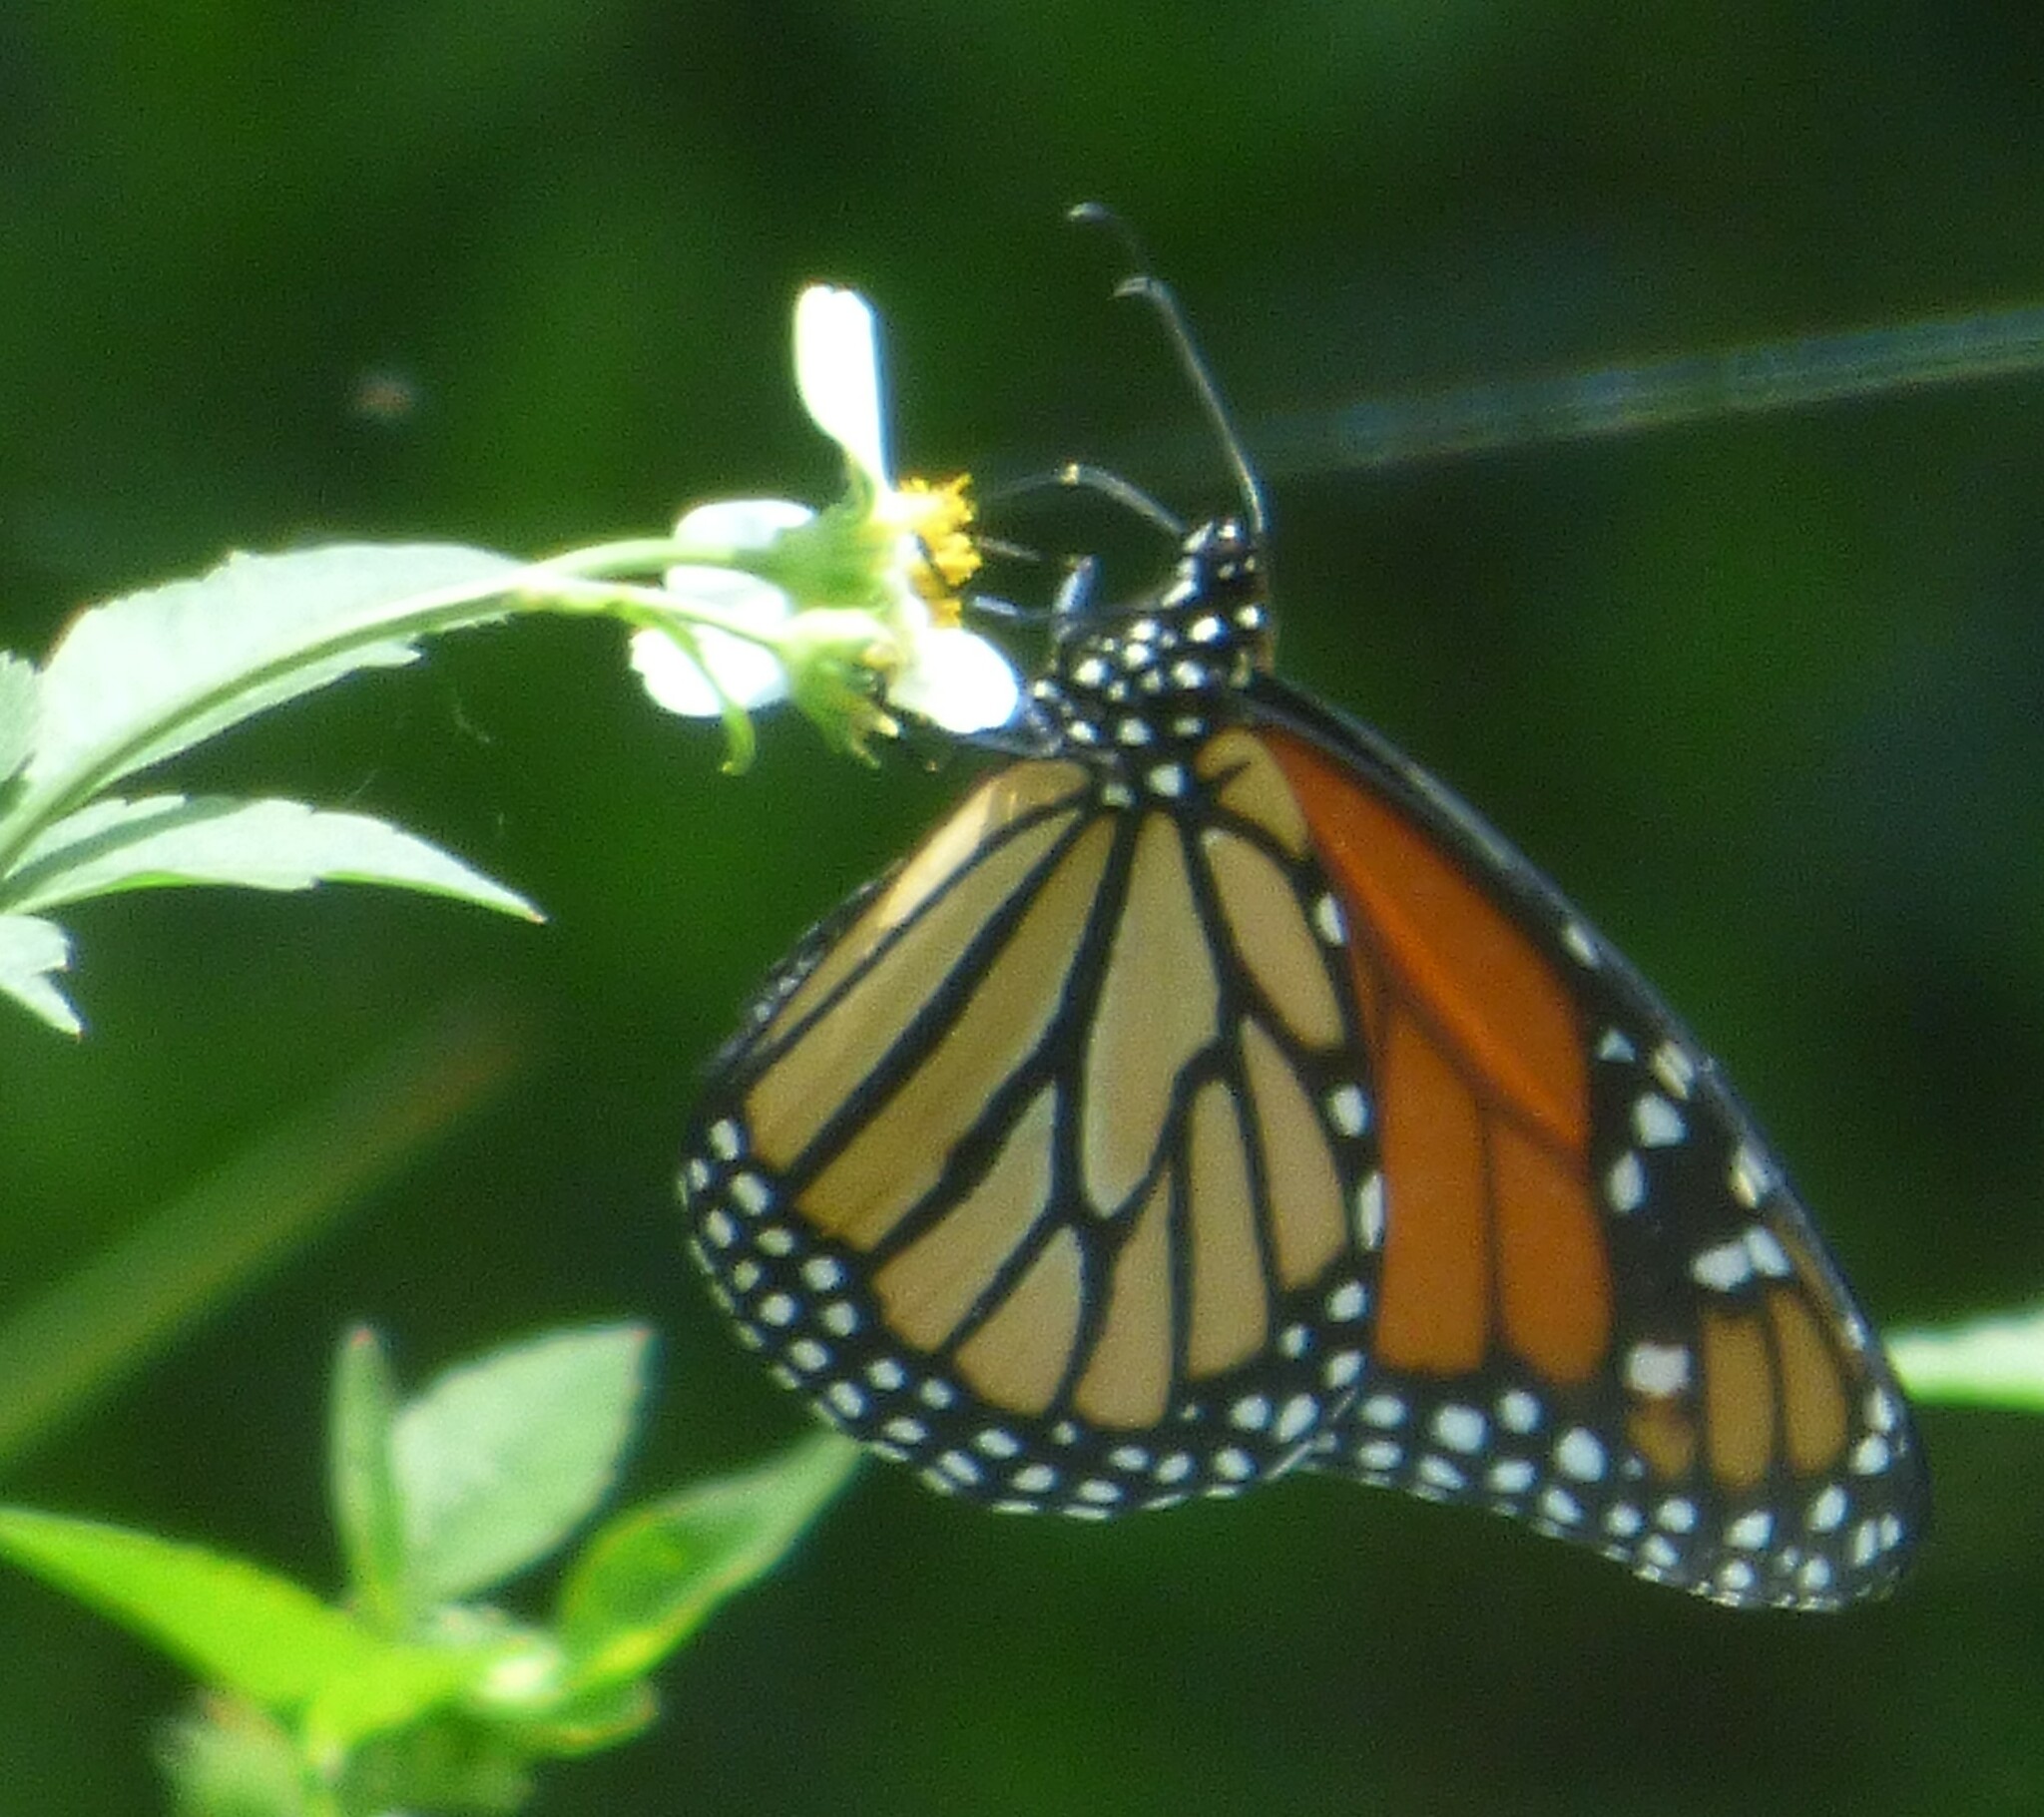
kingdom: Animalia
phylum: Arthropoda
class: Insecta
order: Lepidoptera
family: Nymphalidae
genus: Danaus
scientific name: Danaus plexippus
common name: Monarch
